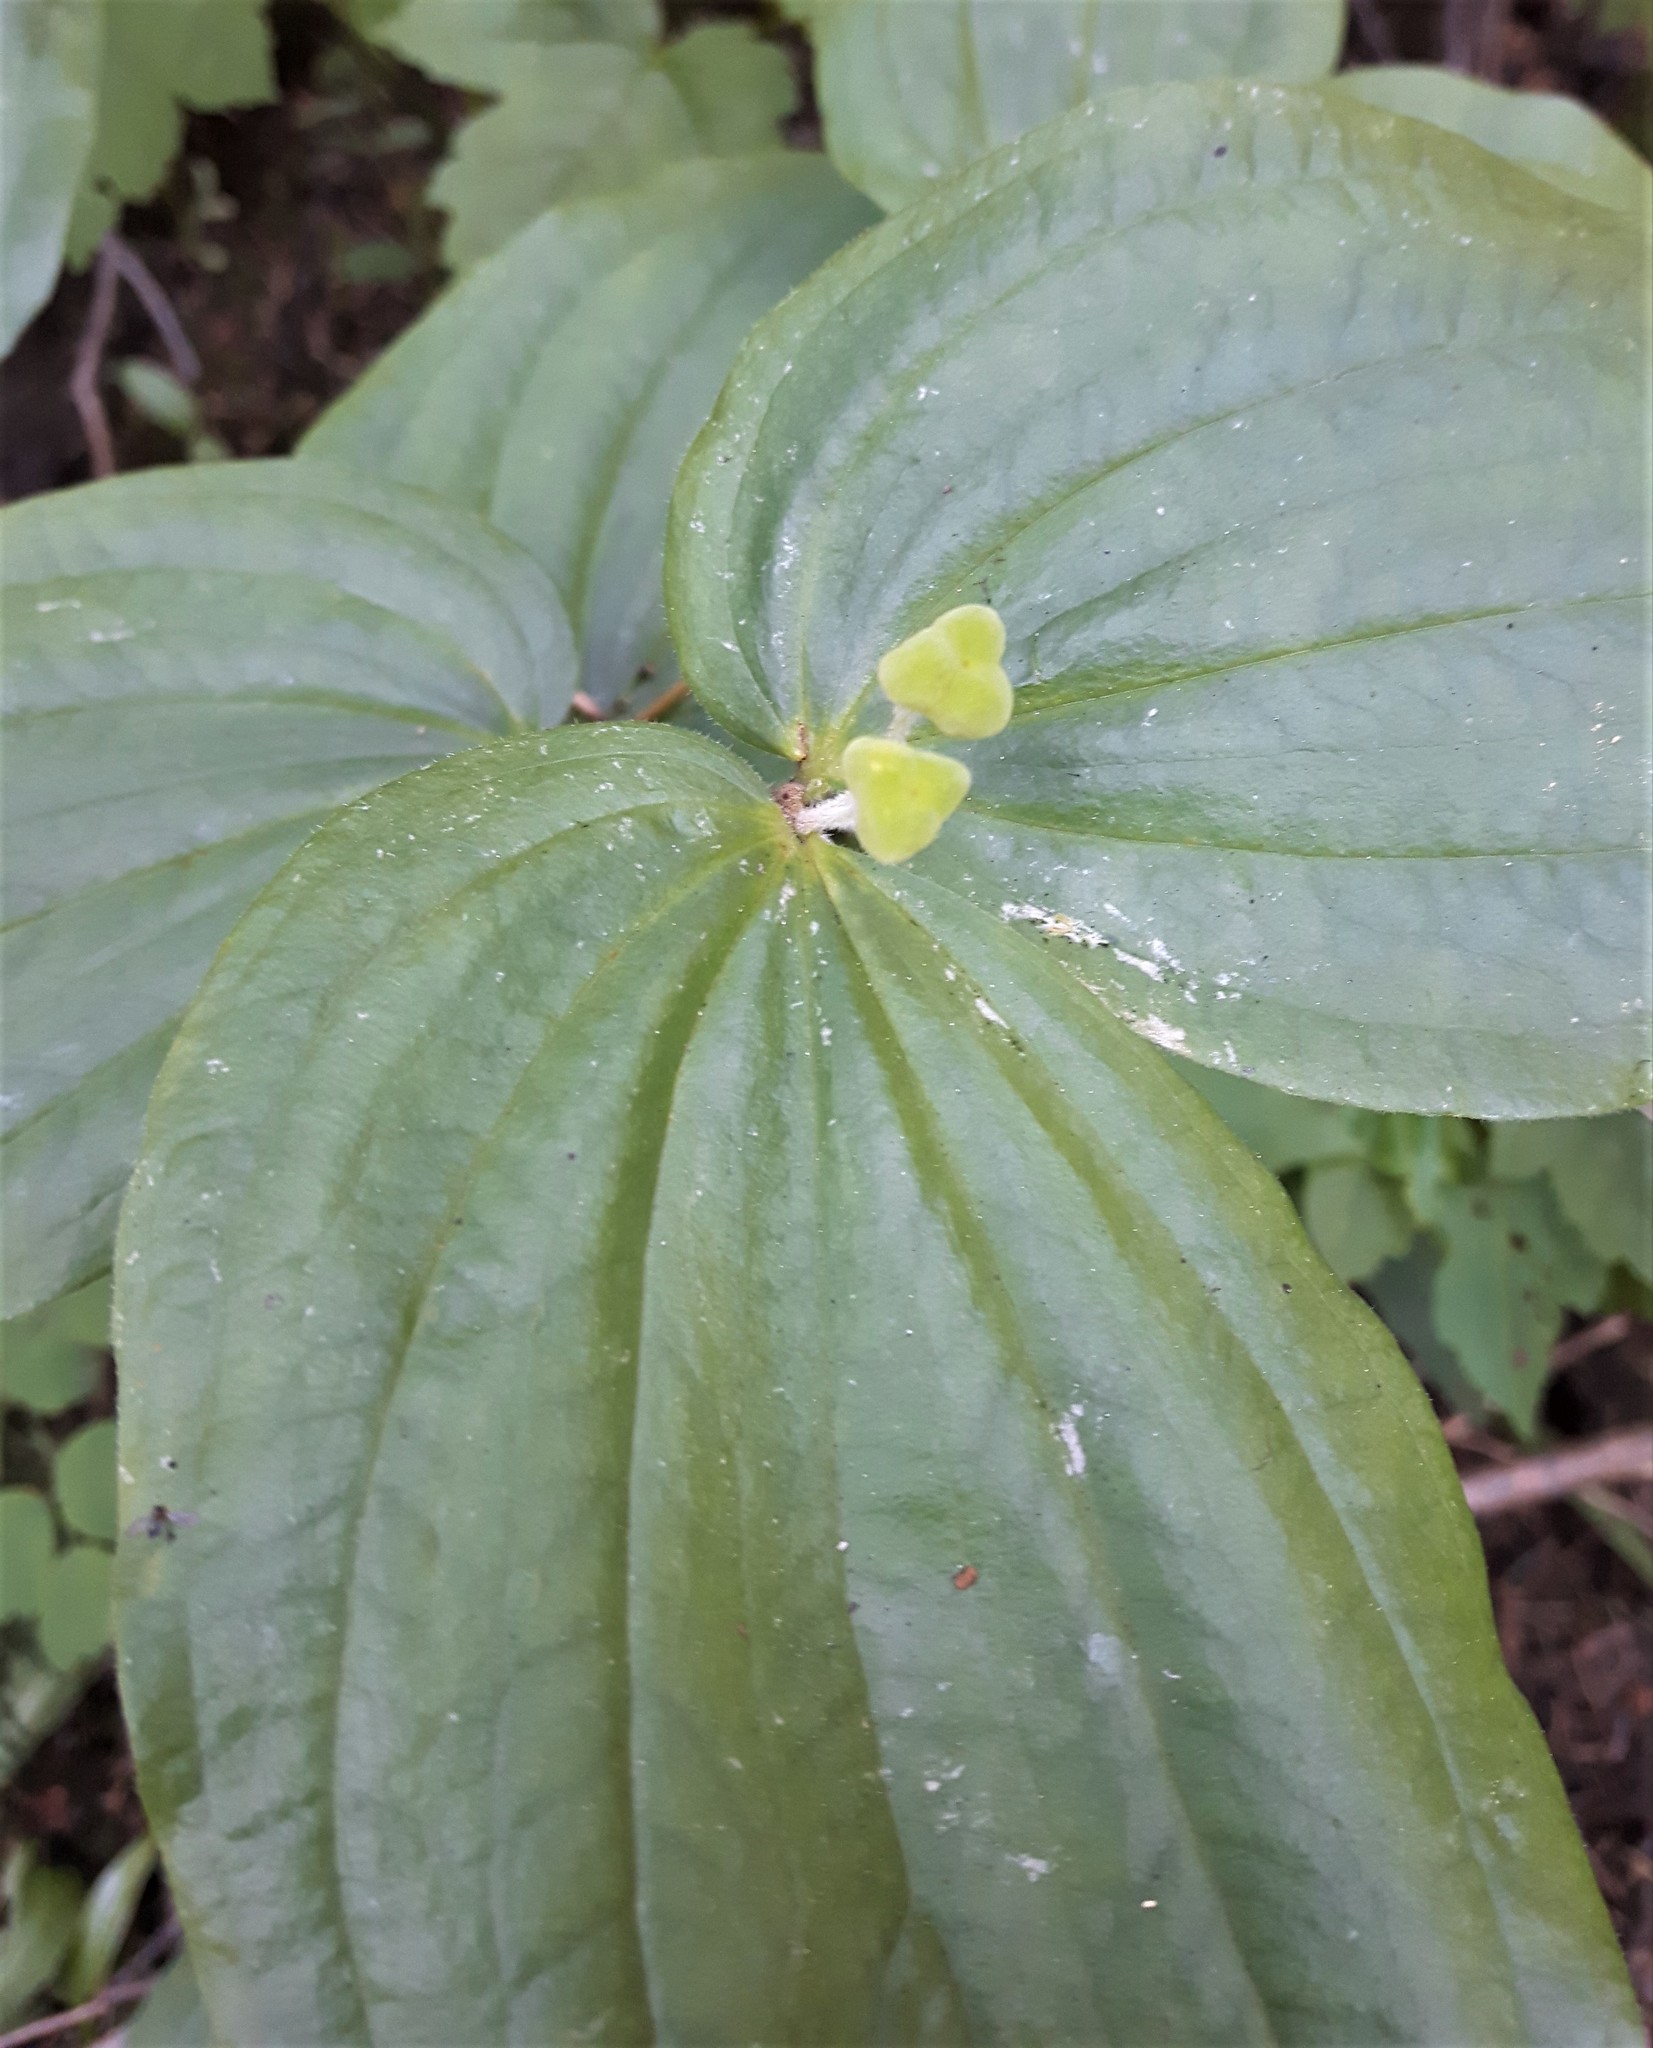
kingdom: Plantae
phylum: Tracheophyta
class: Liliopsida
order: Liliales
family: Liliaceae
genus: Prosartes
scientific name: Prosartes trachycarpa
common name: Rough-fruit fairy-bells
